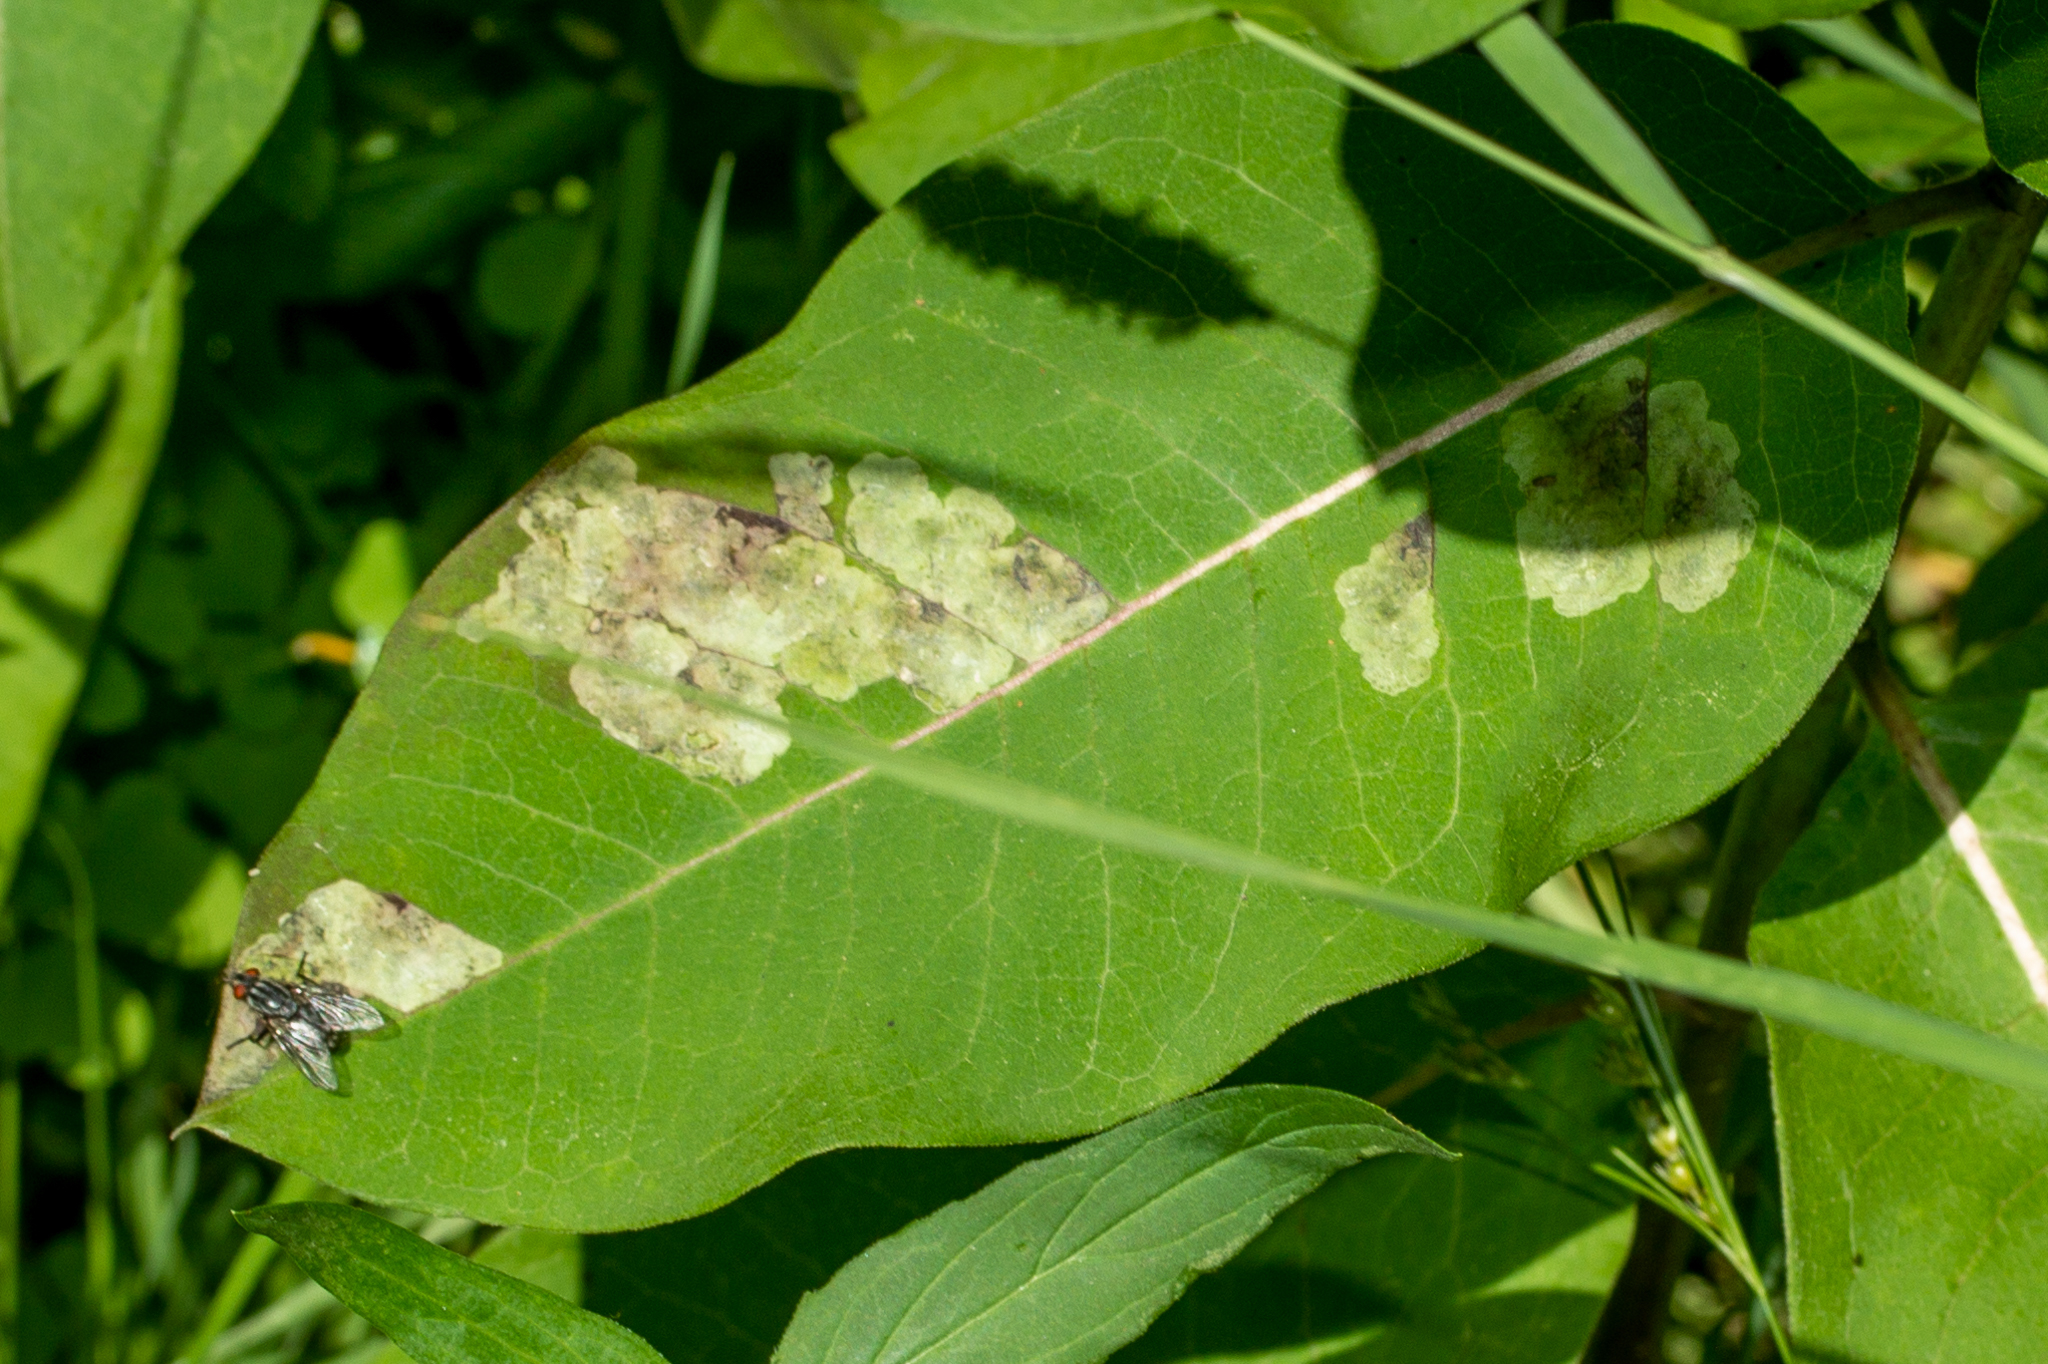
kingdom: Animalia
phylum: Arthropoda
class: Insecta
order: Diptera
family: Agromyzidae
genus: Liriomyza
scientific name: Liriomyza asclepiadis
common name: Milkweed leaf-miner fly
